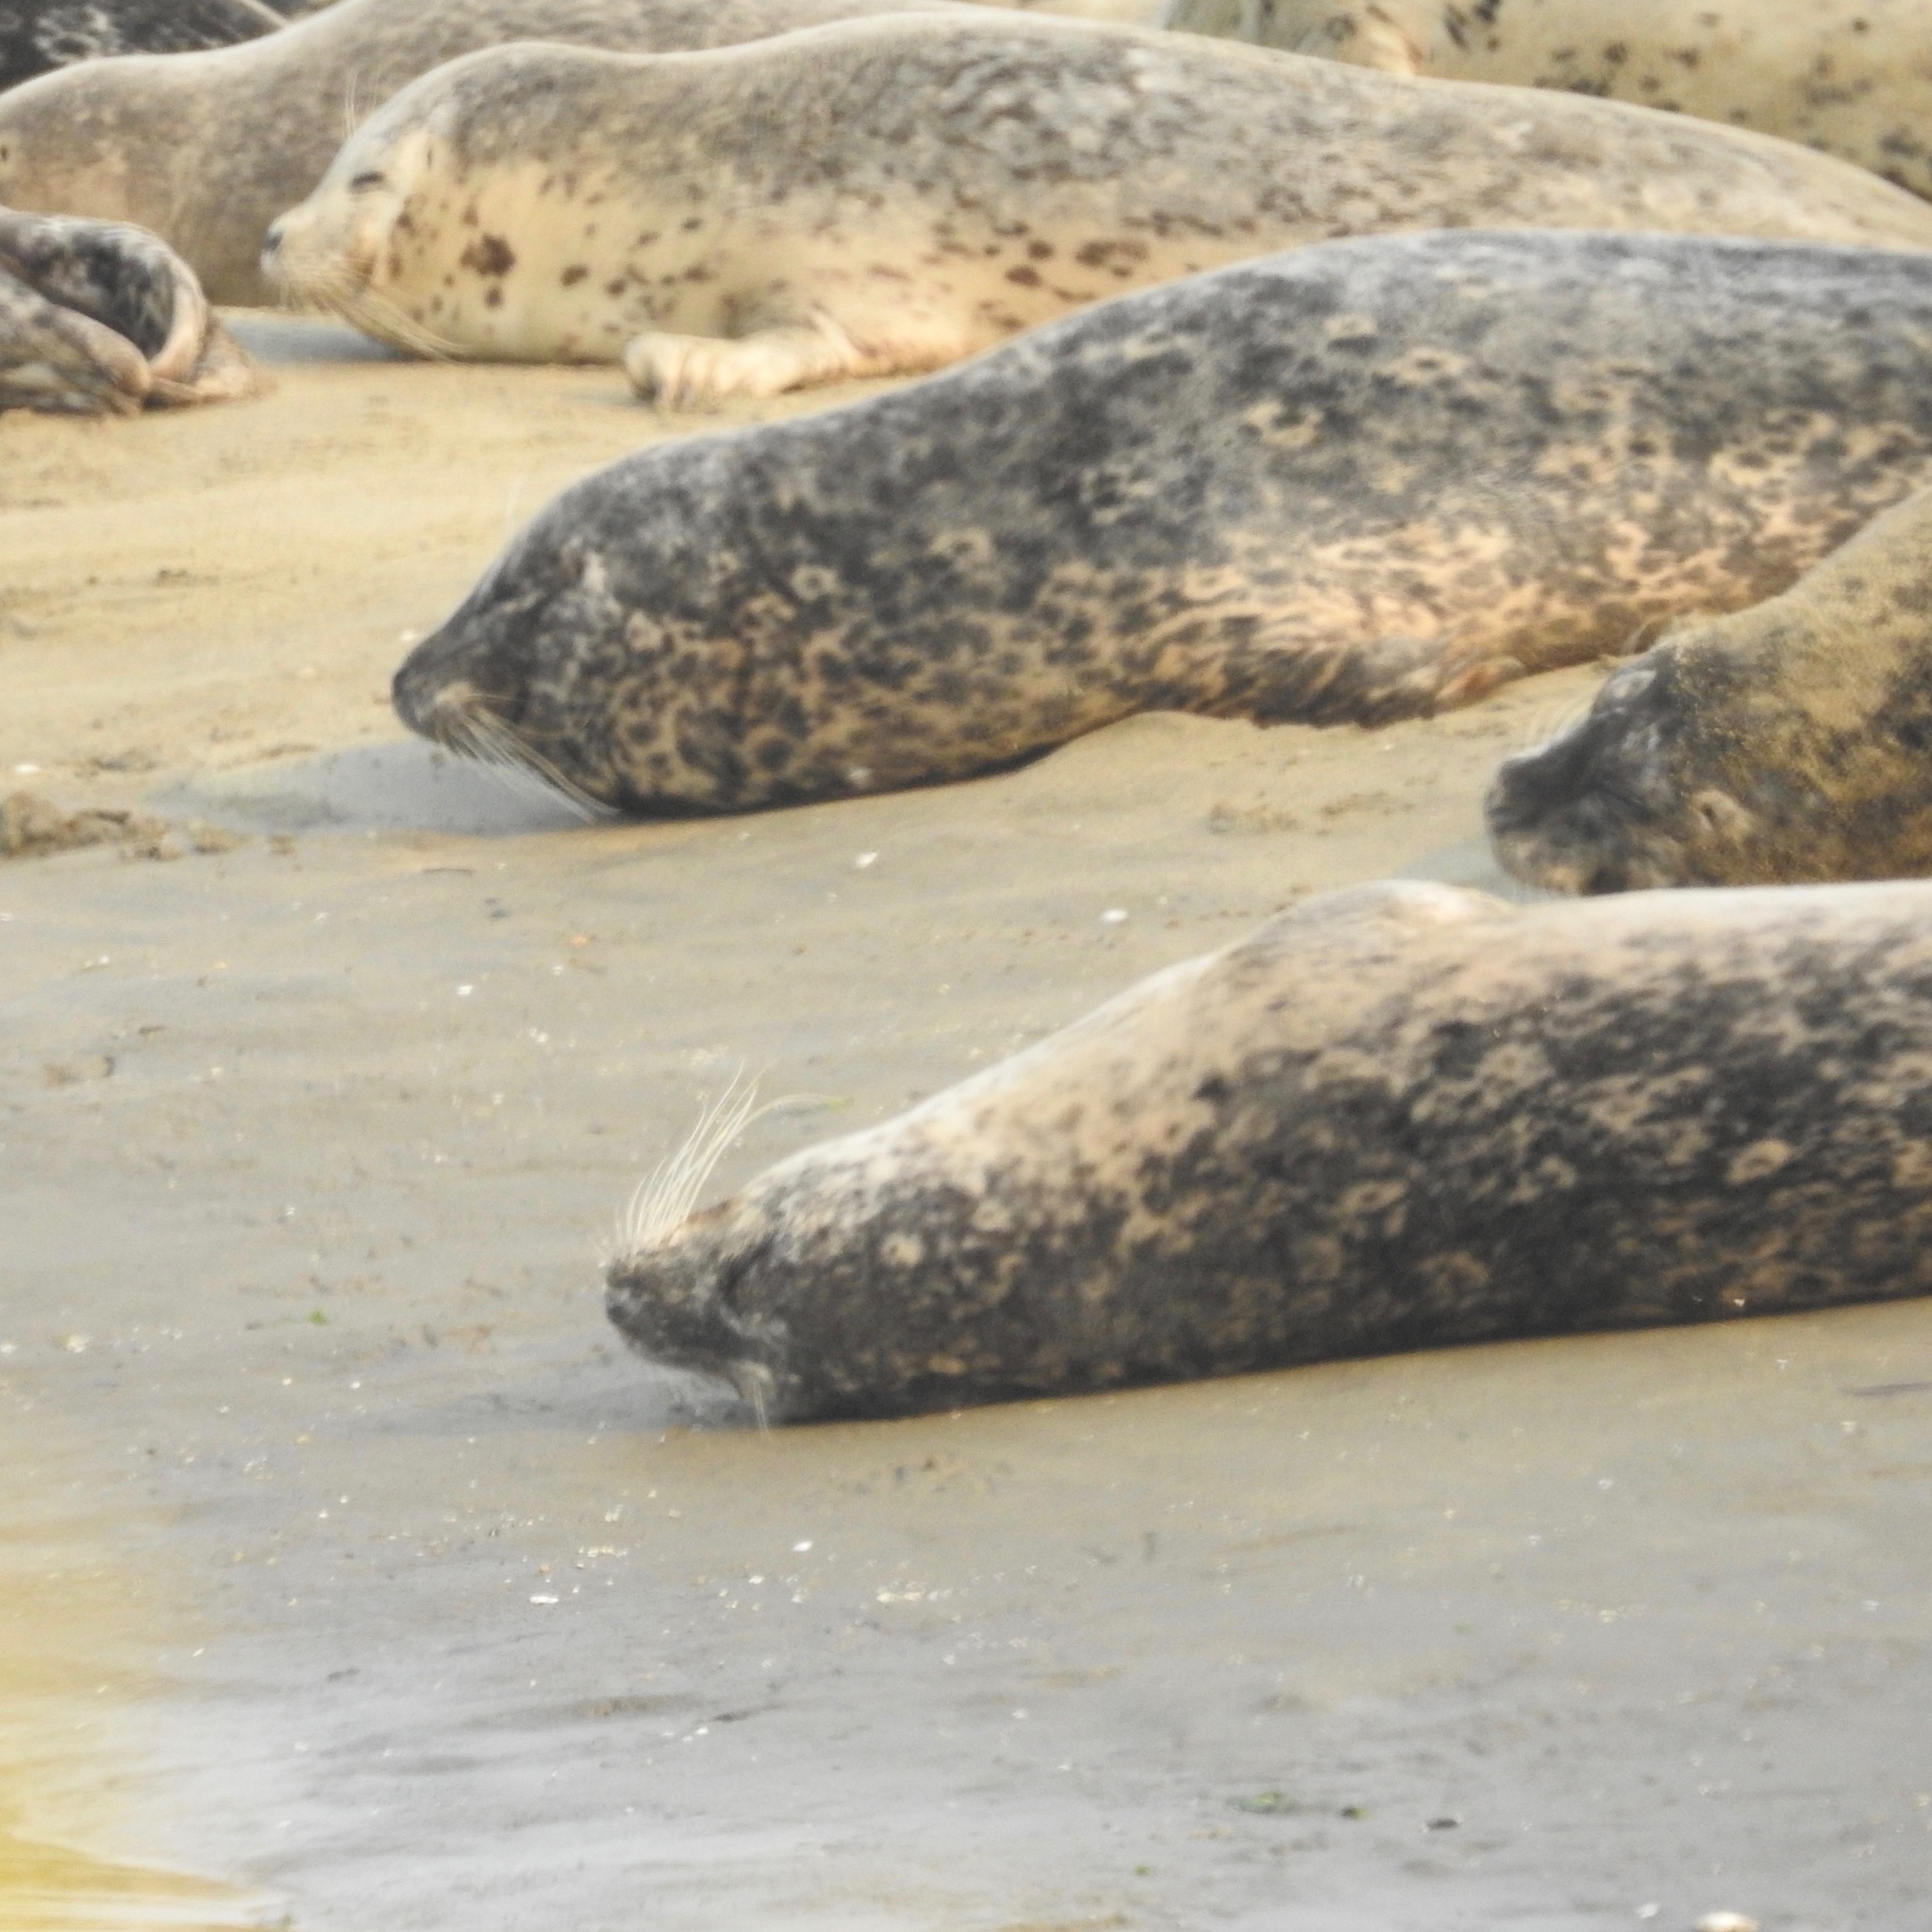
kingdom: Animalia
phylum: Chordata
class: Mammalia
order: Carnivora
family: Phocidae
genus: Phoca
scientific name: Phoca vitulina
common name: Harbor seal
